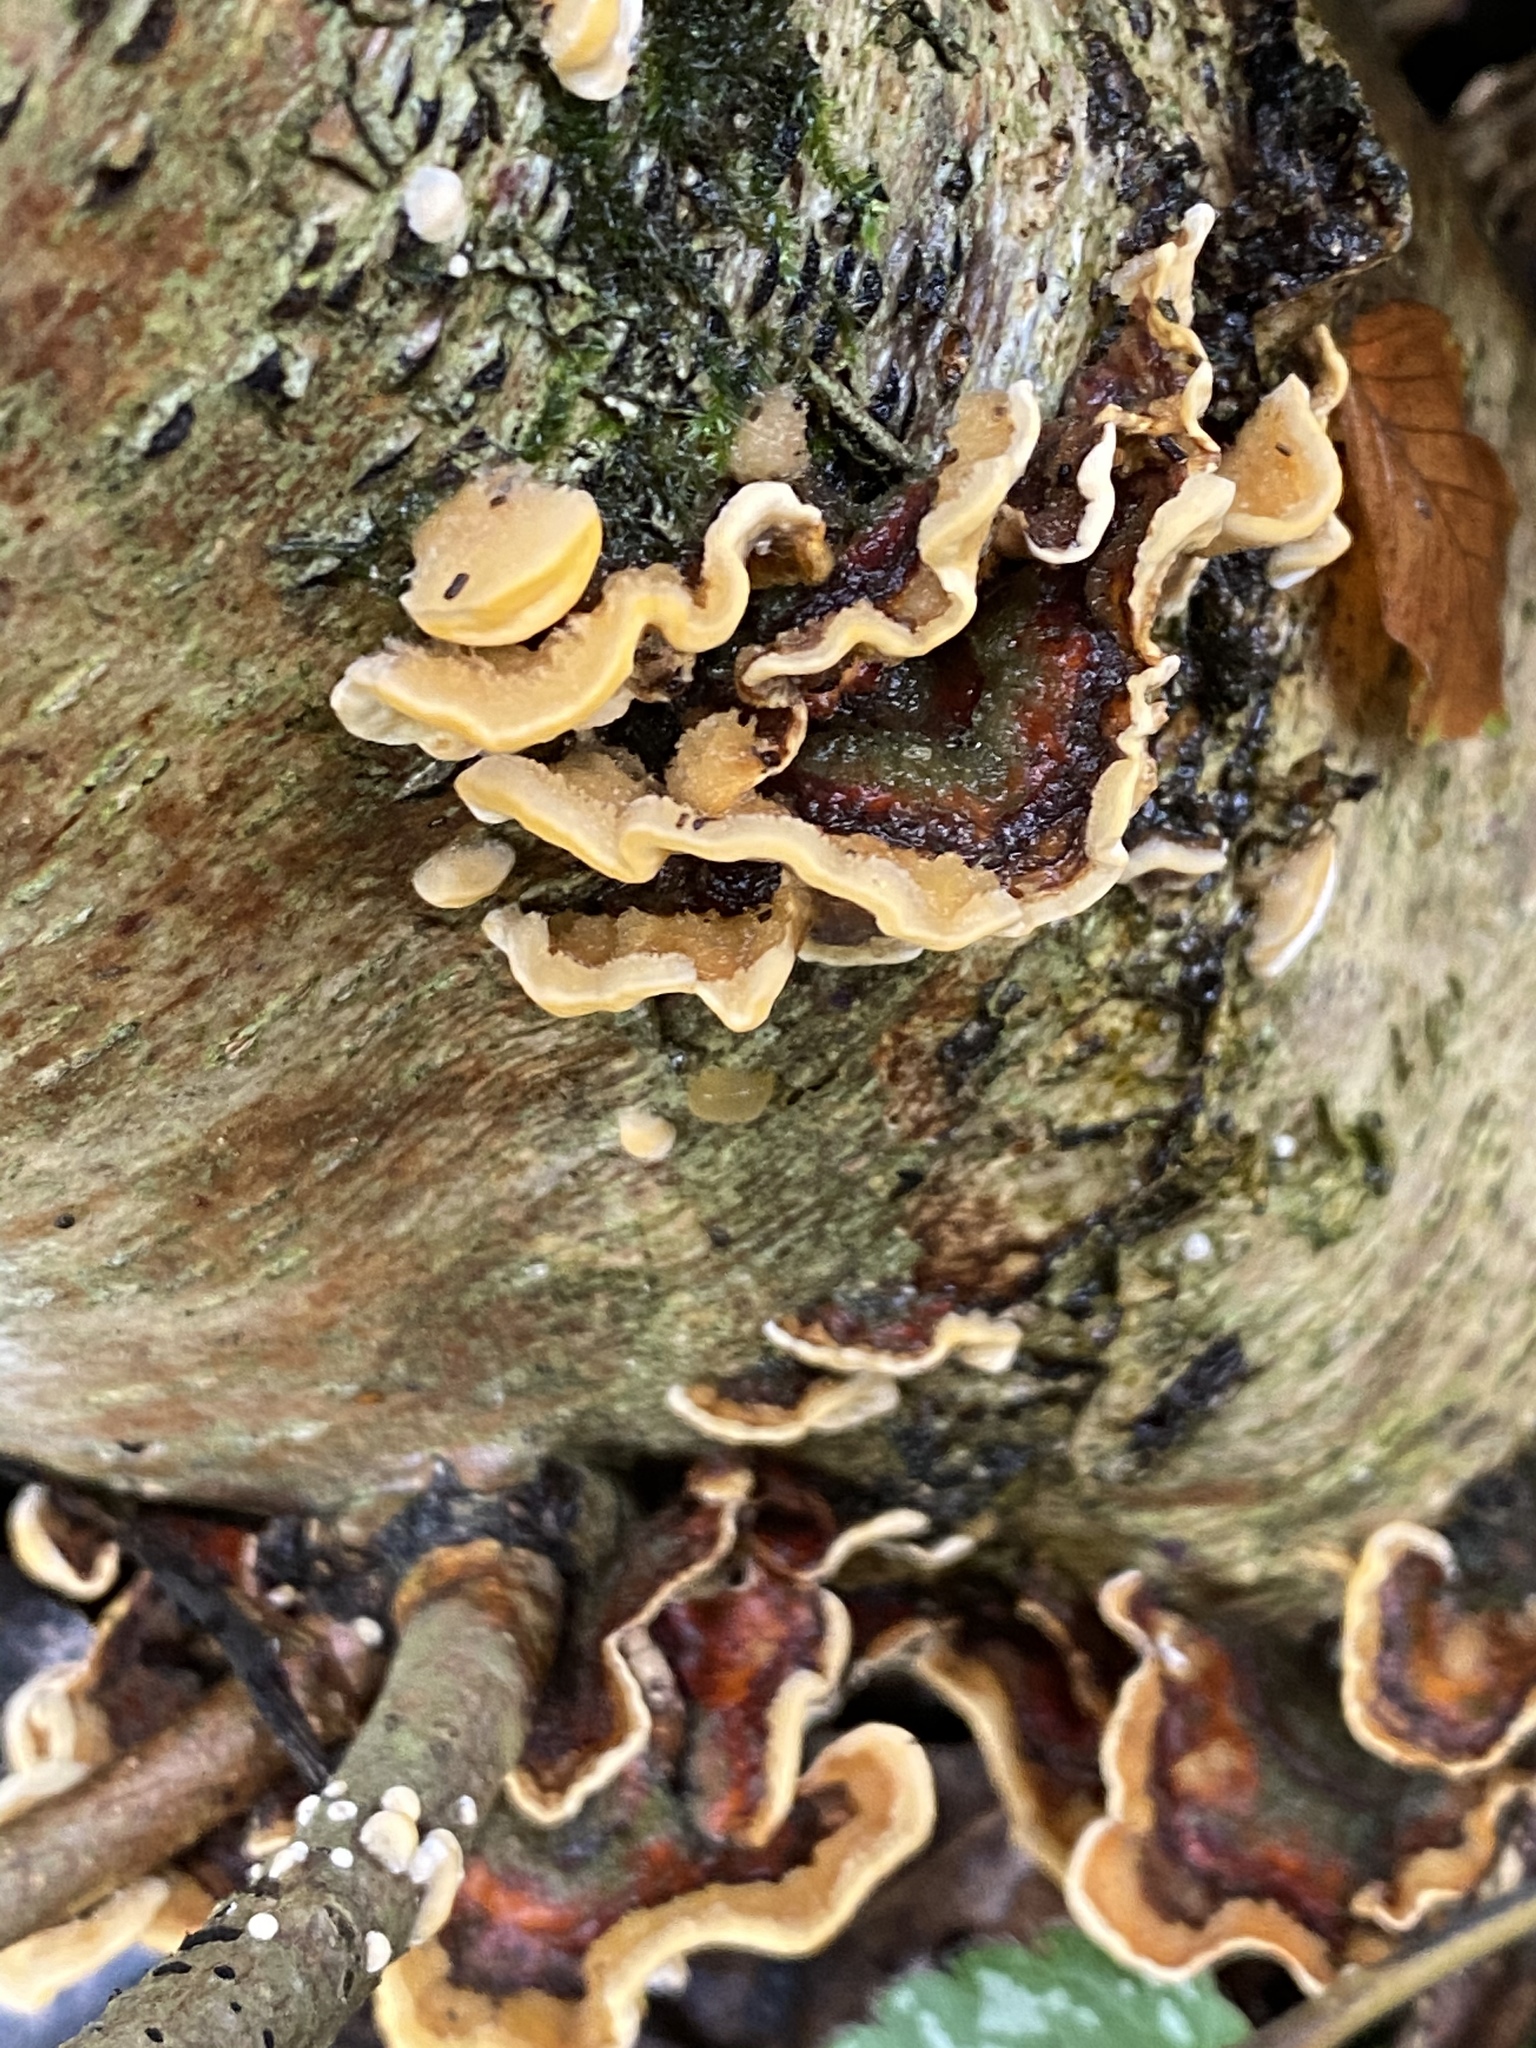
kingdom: Fungi
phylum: Basidiomycota
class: Agaricomycetes
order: Russulales
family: Stereaceae
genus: Stereum
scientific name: Stereum hirsutum
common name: Hairy curtain crust
